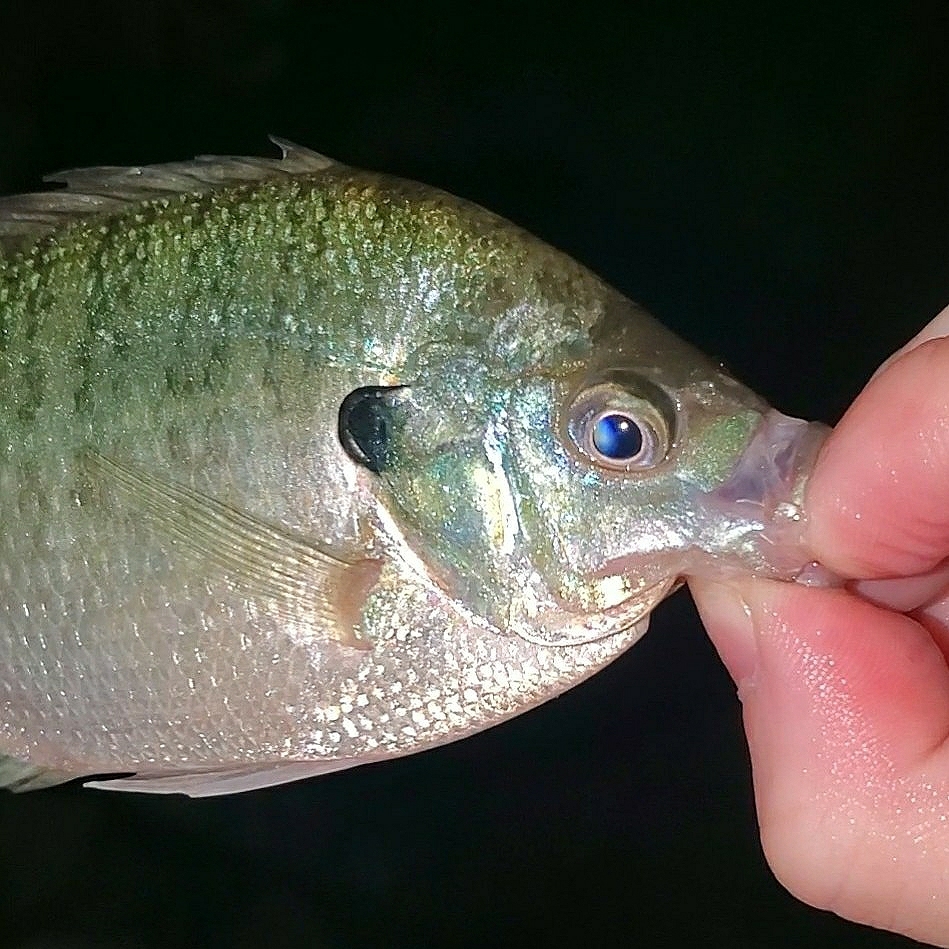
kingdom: Animalia
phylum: Chordata
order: Perciformes
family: Centrarchidae
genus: Lepomis
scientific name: Lepomis macrochirus
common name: Bluegill
